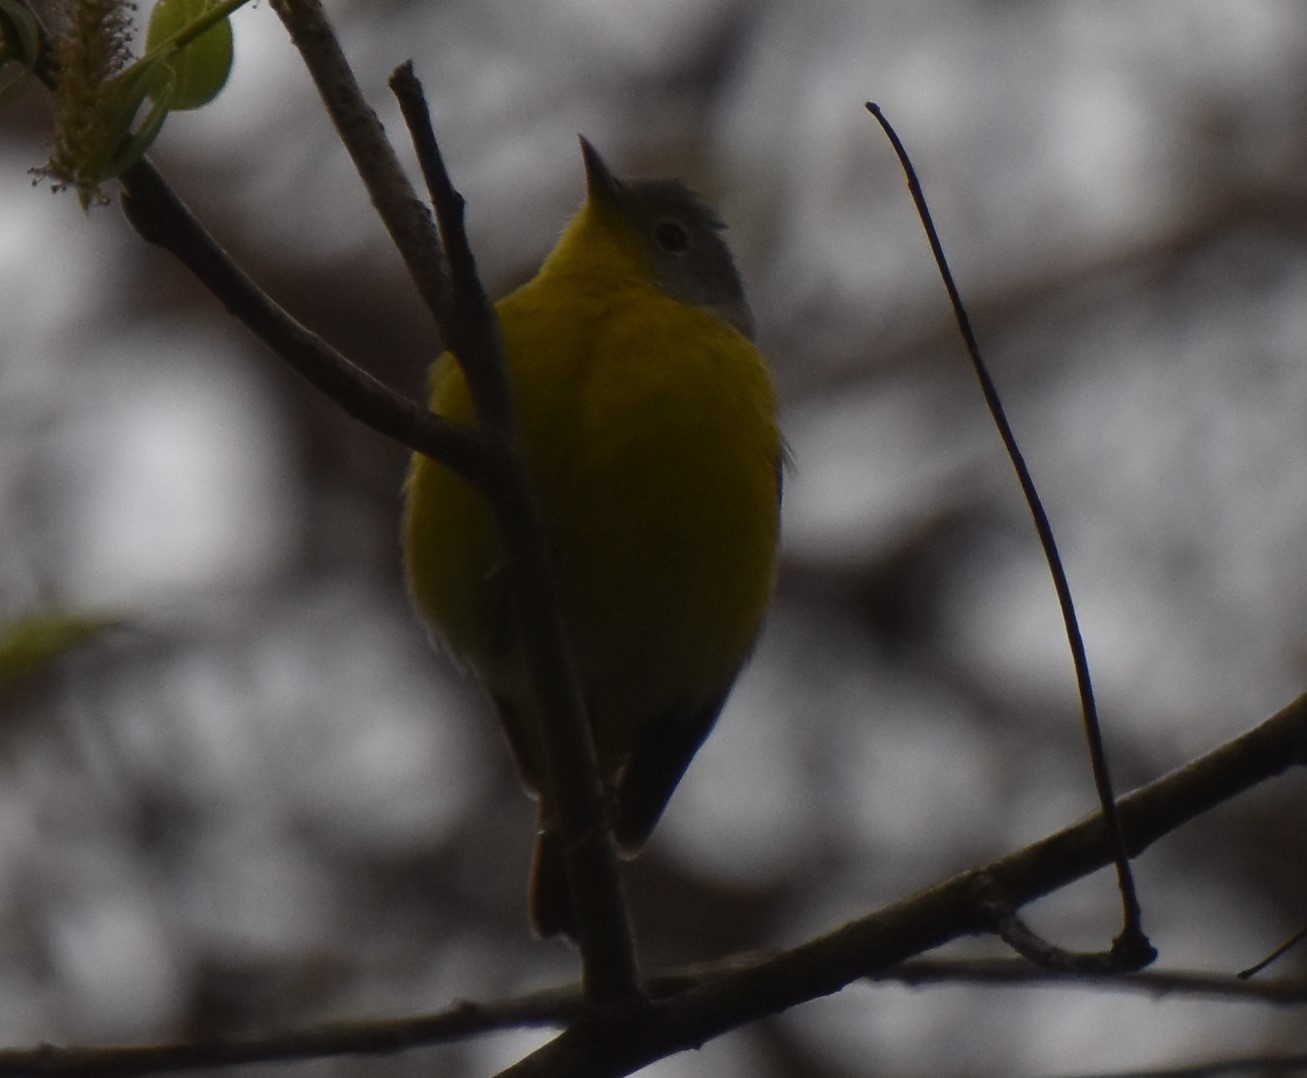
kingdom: Animalia
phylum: Chordata
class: Aves
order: Passeriformes
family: Parulidae
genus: Leiothlypis
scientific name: Leiothlypis ruficapilla
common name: Nashville warbler
